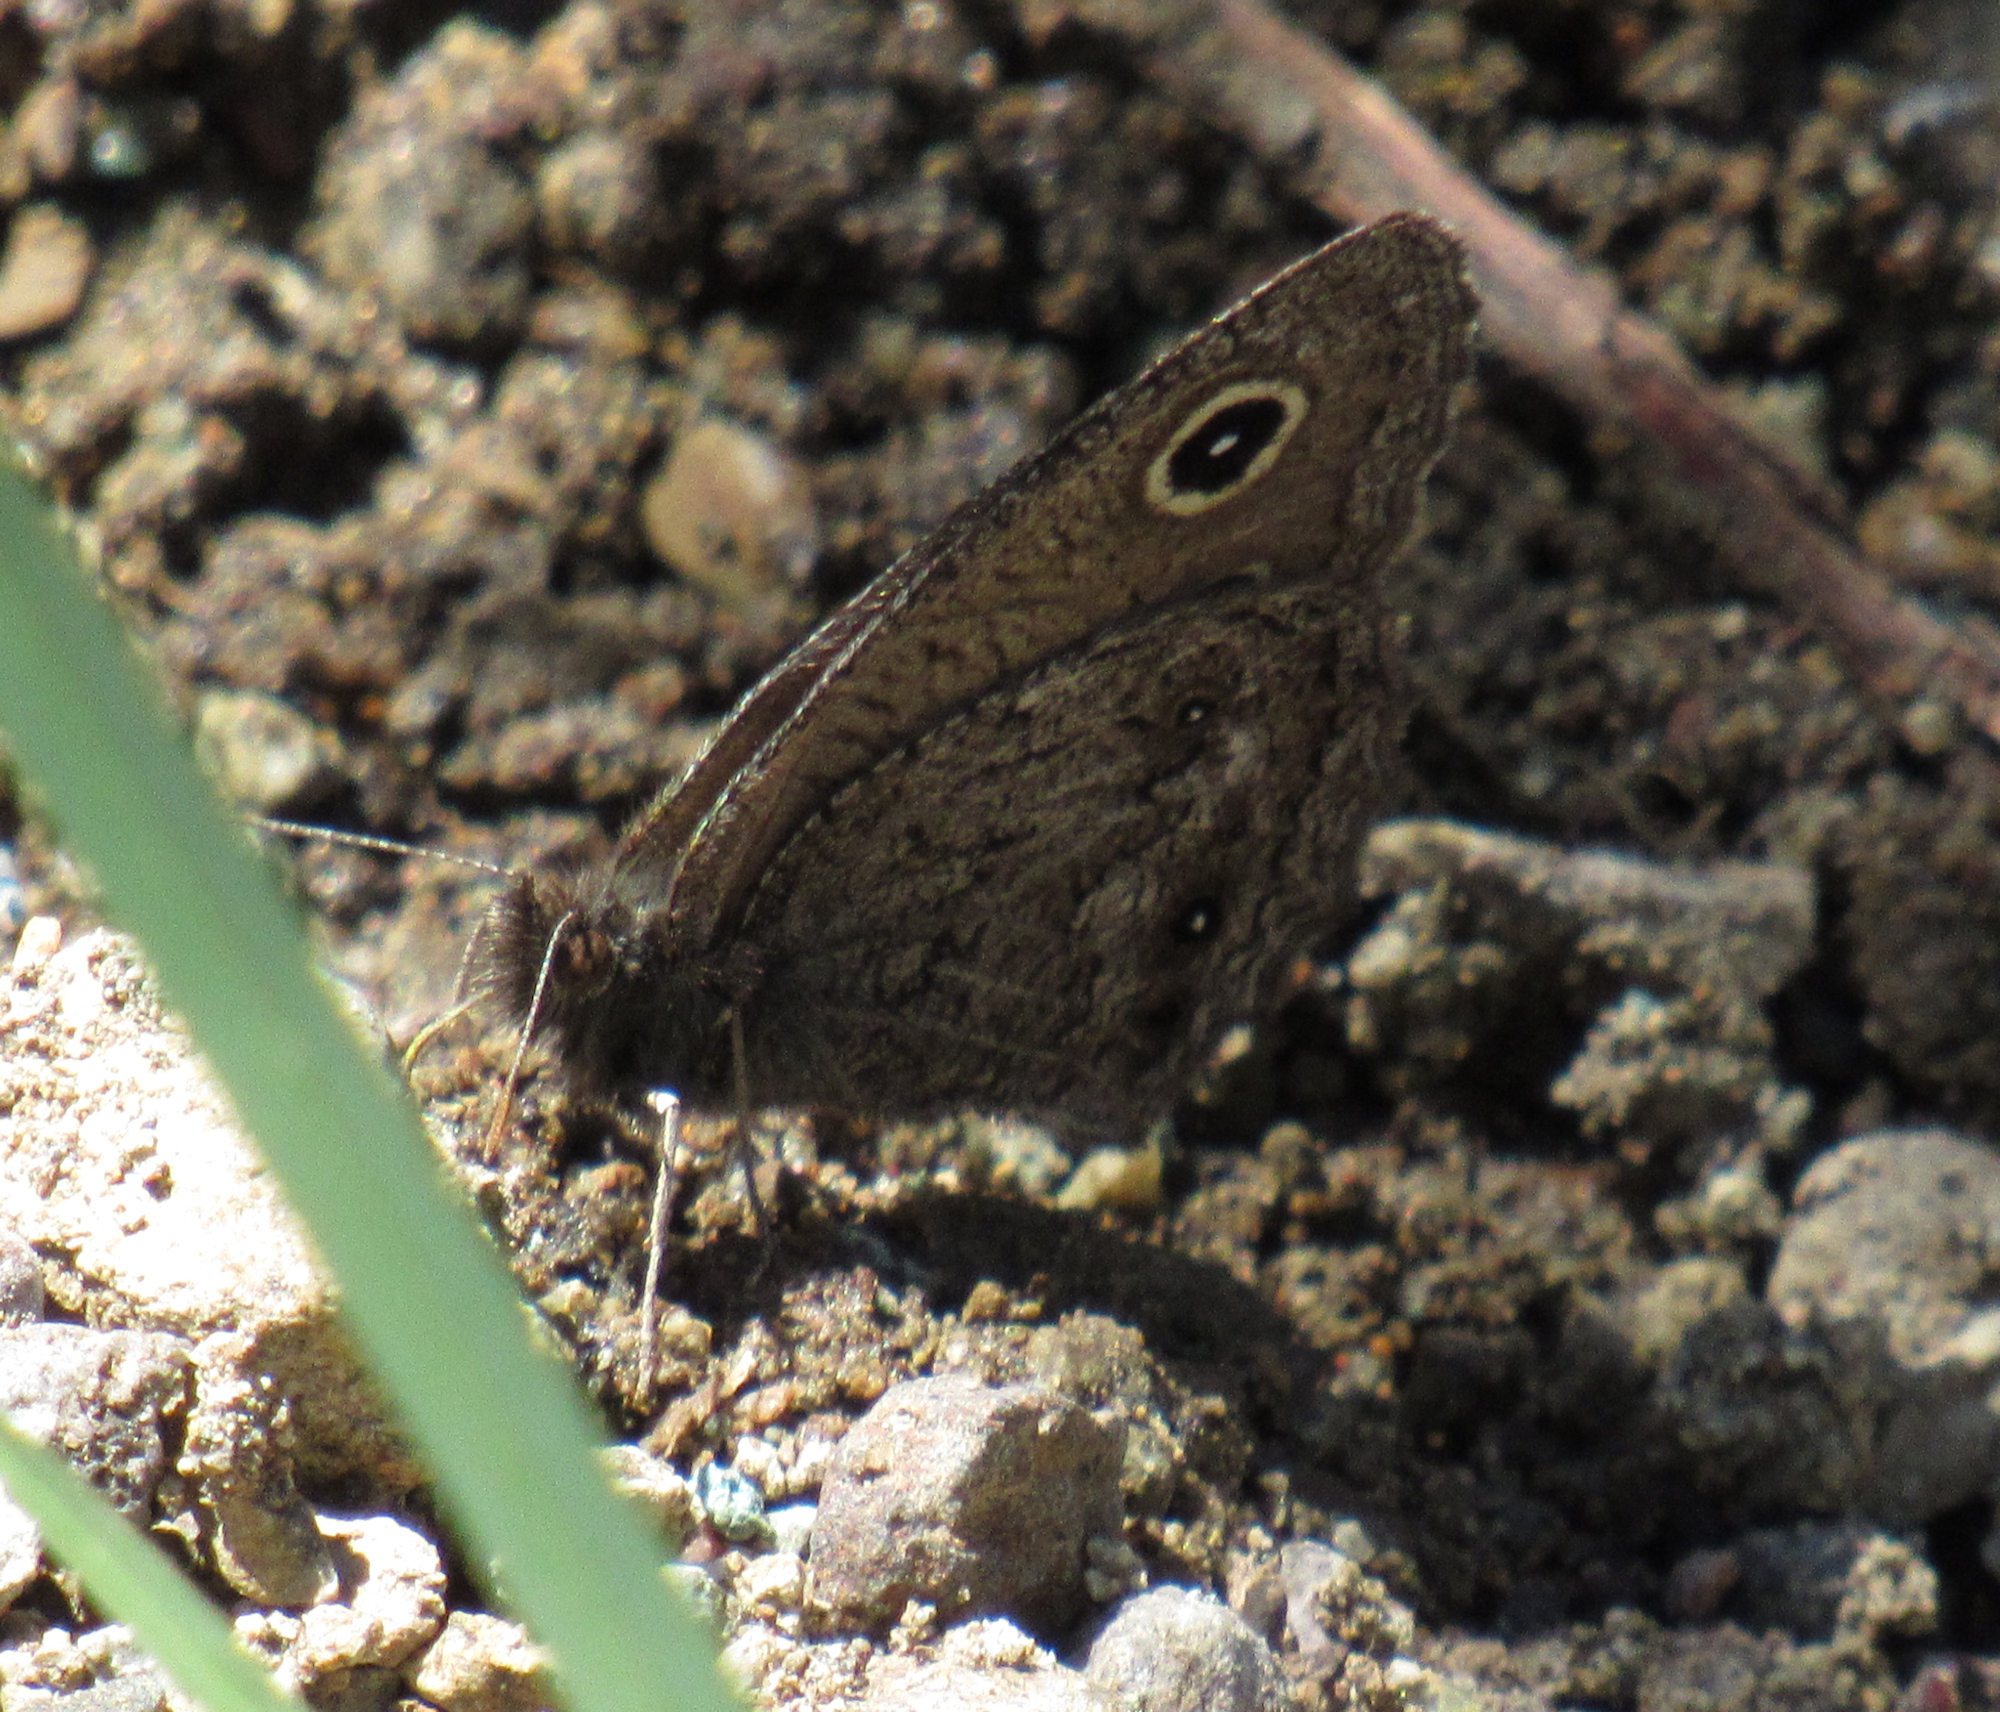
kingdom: Animalia
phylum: Arthropoda
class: Insecta
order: Lepidoptera
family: Nymphalidae
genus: Cercyonis
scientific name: Cercyonis oetus
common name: Small wood-nymph
